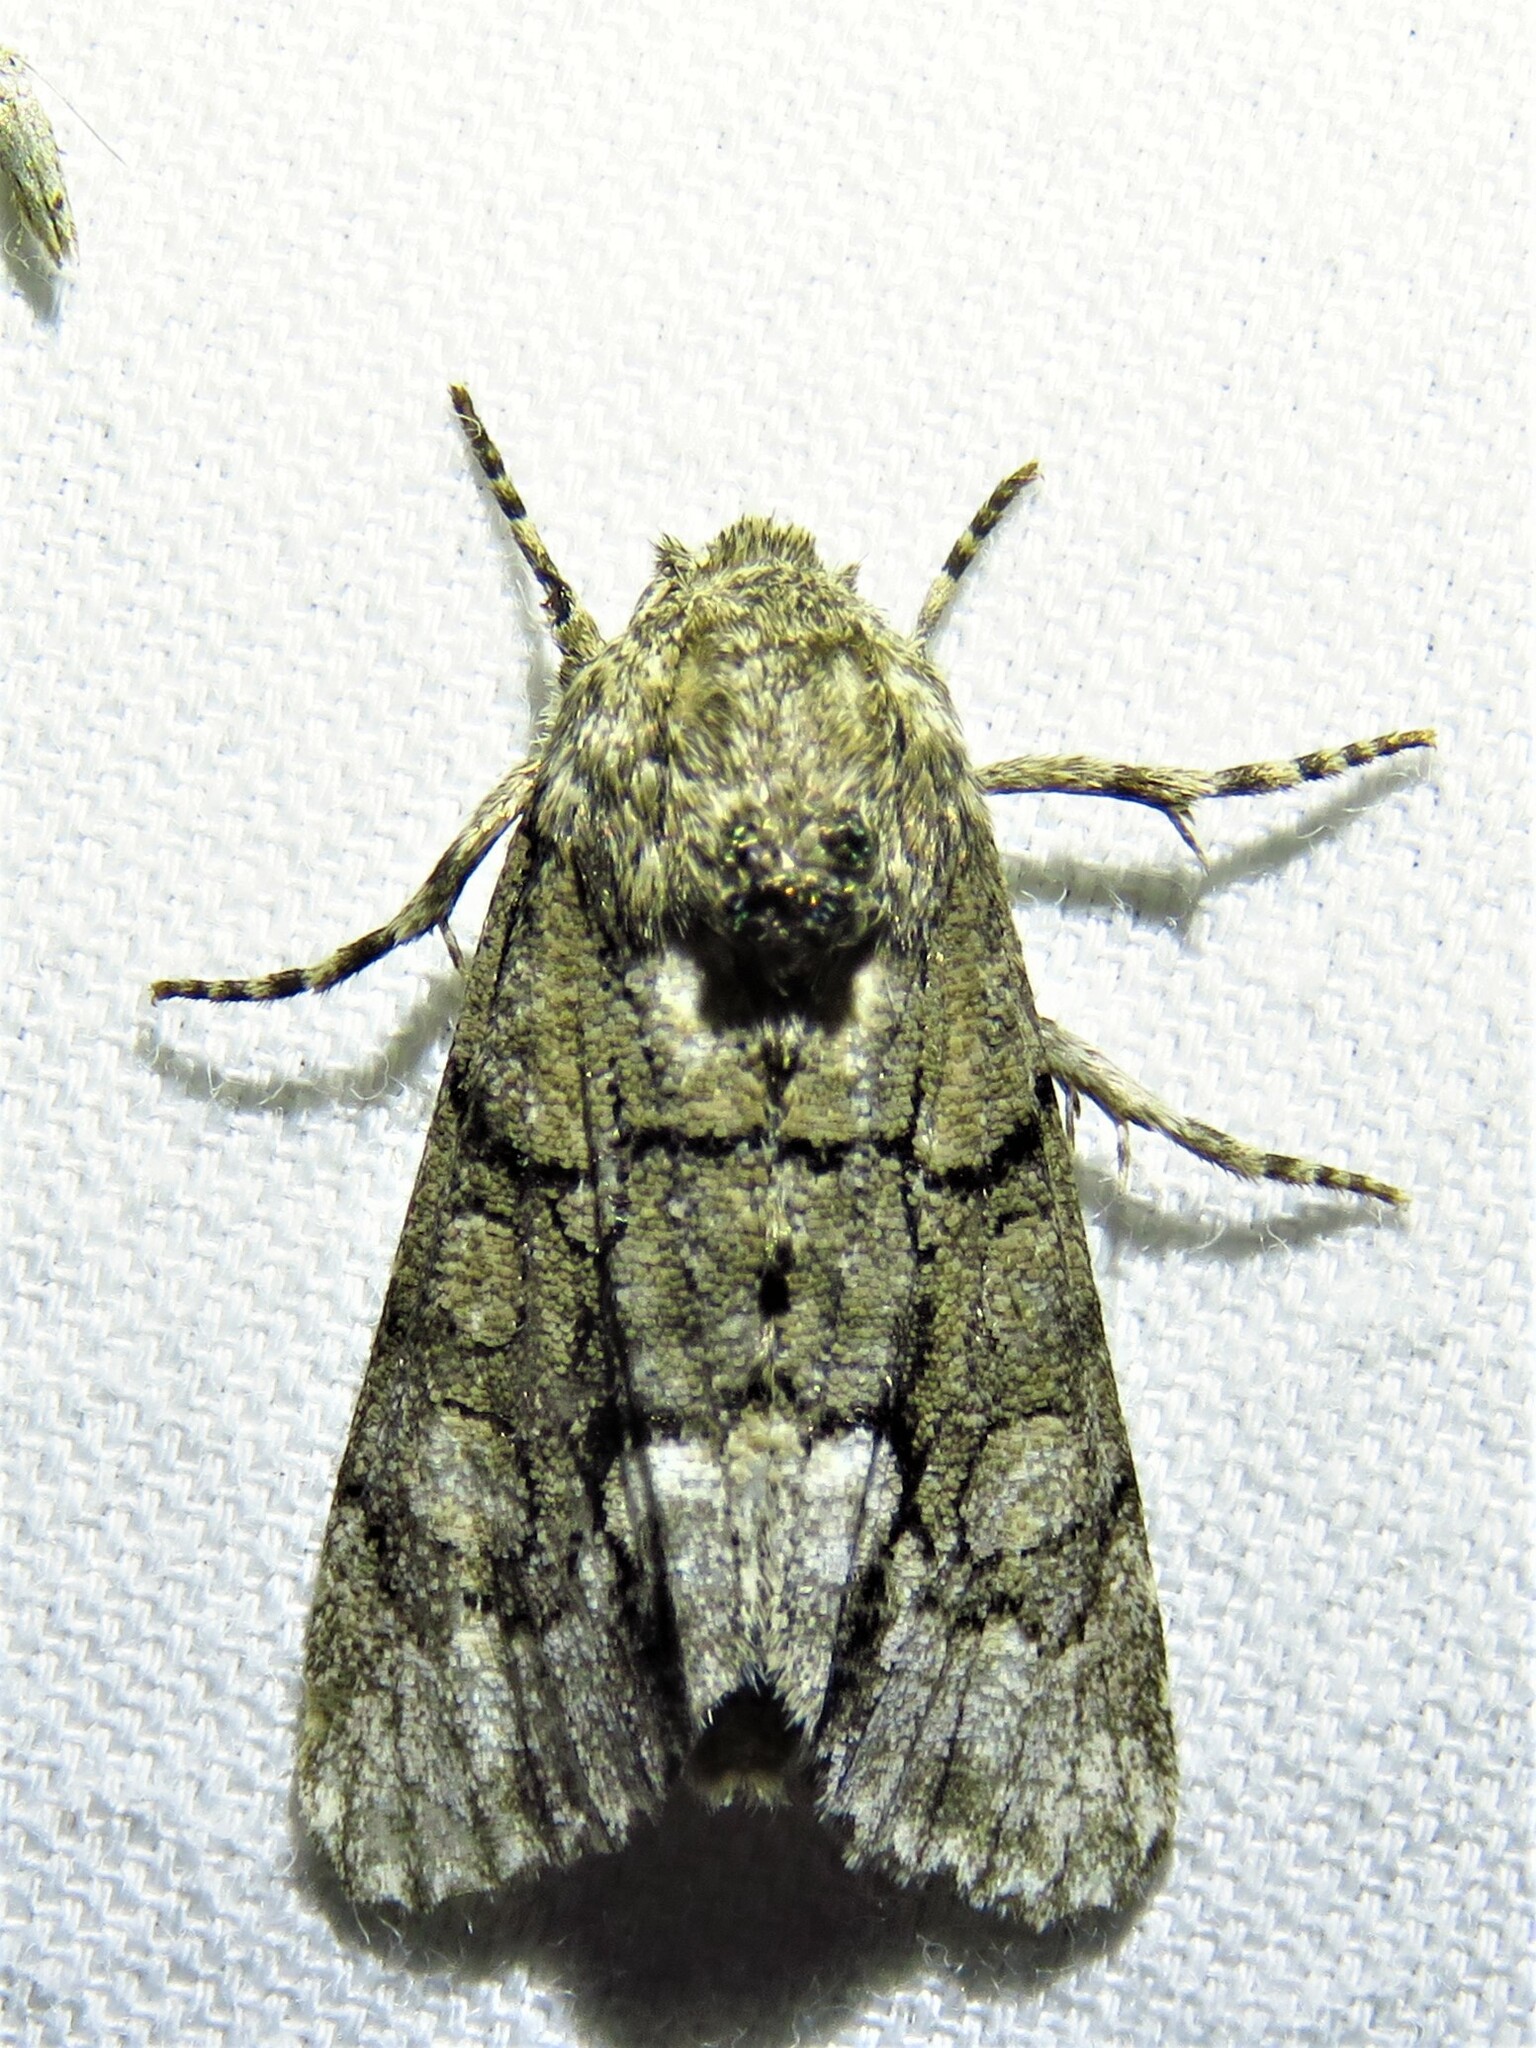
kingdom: Animalia
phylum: Arthropoda
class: Insecta
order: Lepidoptera
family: Noctuidae
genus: Oxycnemis
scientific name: Oxycnemis grandimacula
